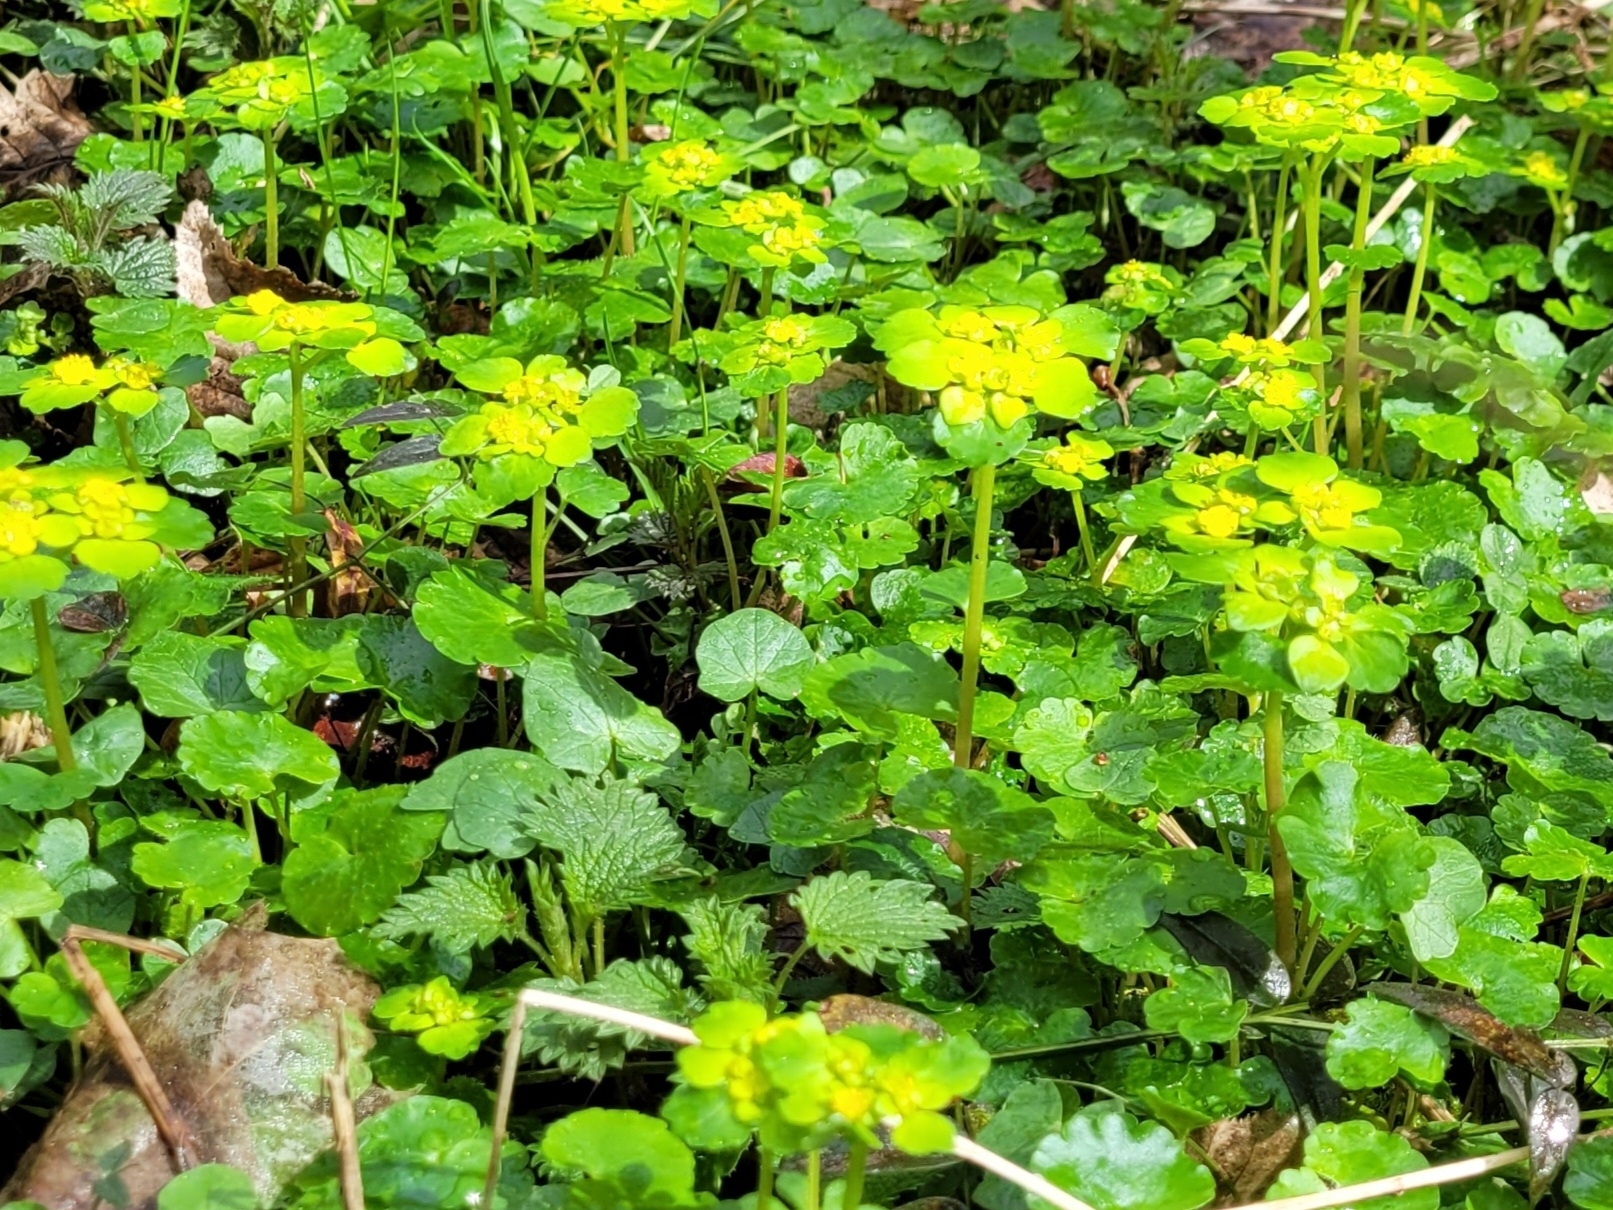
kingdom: Plantae
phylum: Tracheophyta
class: Magnoliopsida
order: Saxifragales
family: Saxifragaceae
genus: Chrysosplenium
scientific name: Chrysosplenium alternifolium
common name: Alternate-leaved golden-saxifrage
